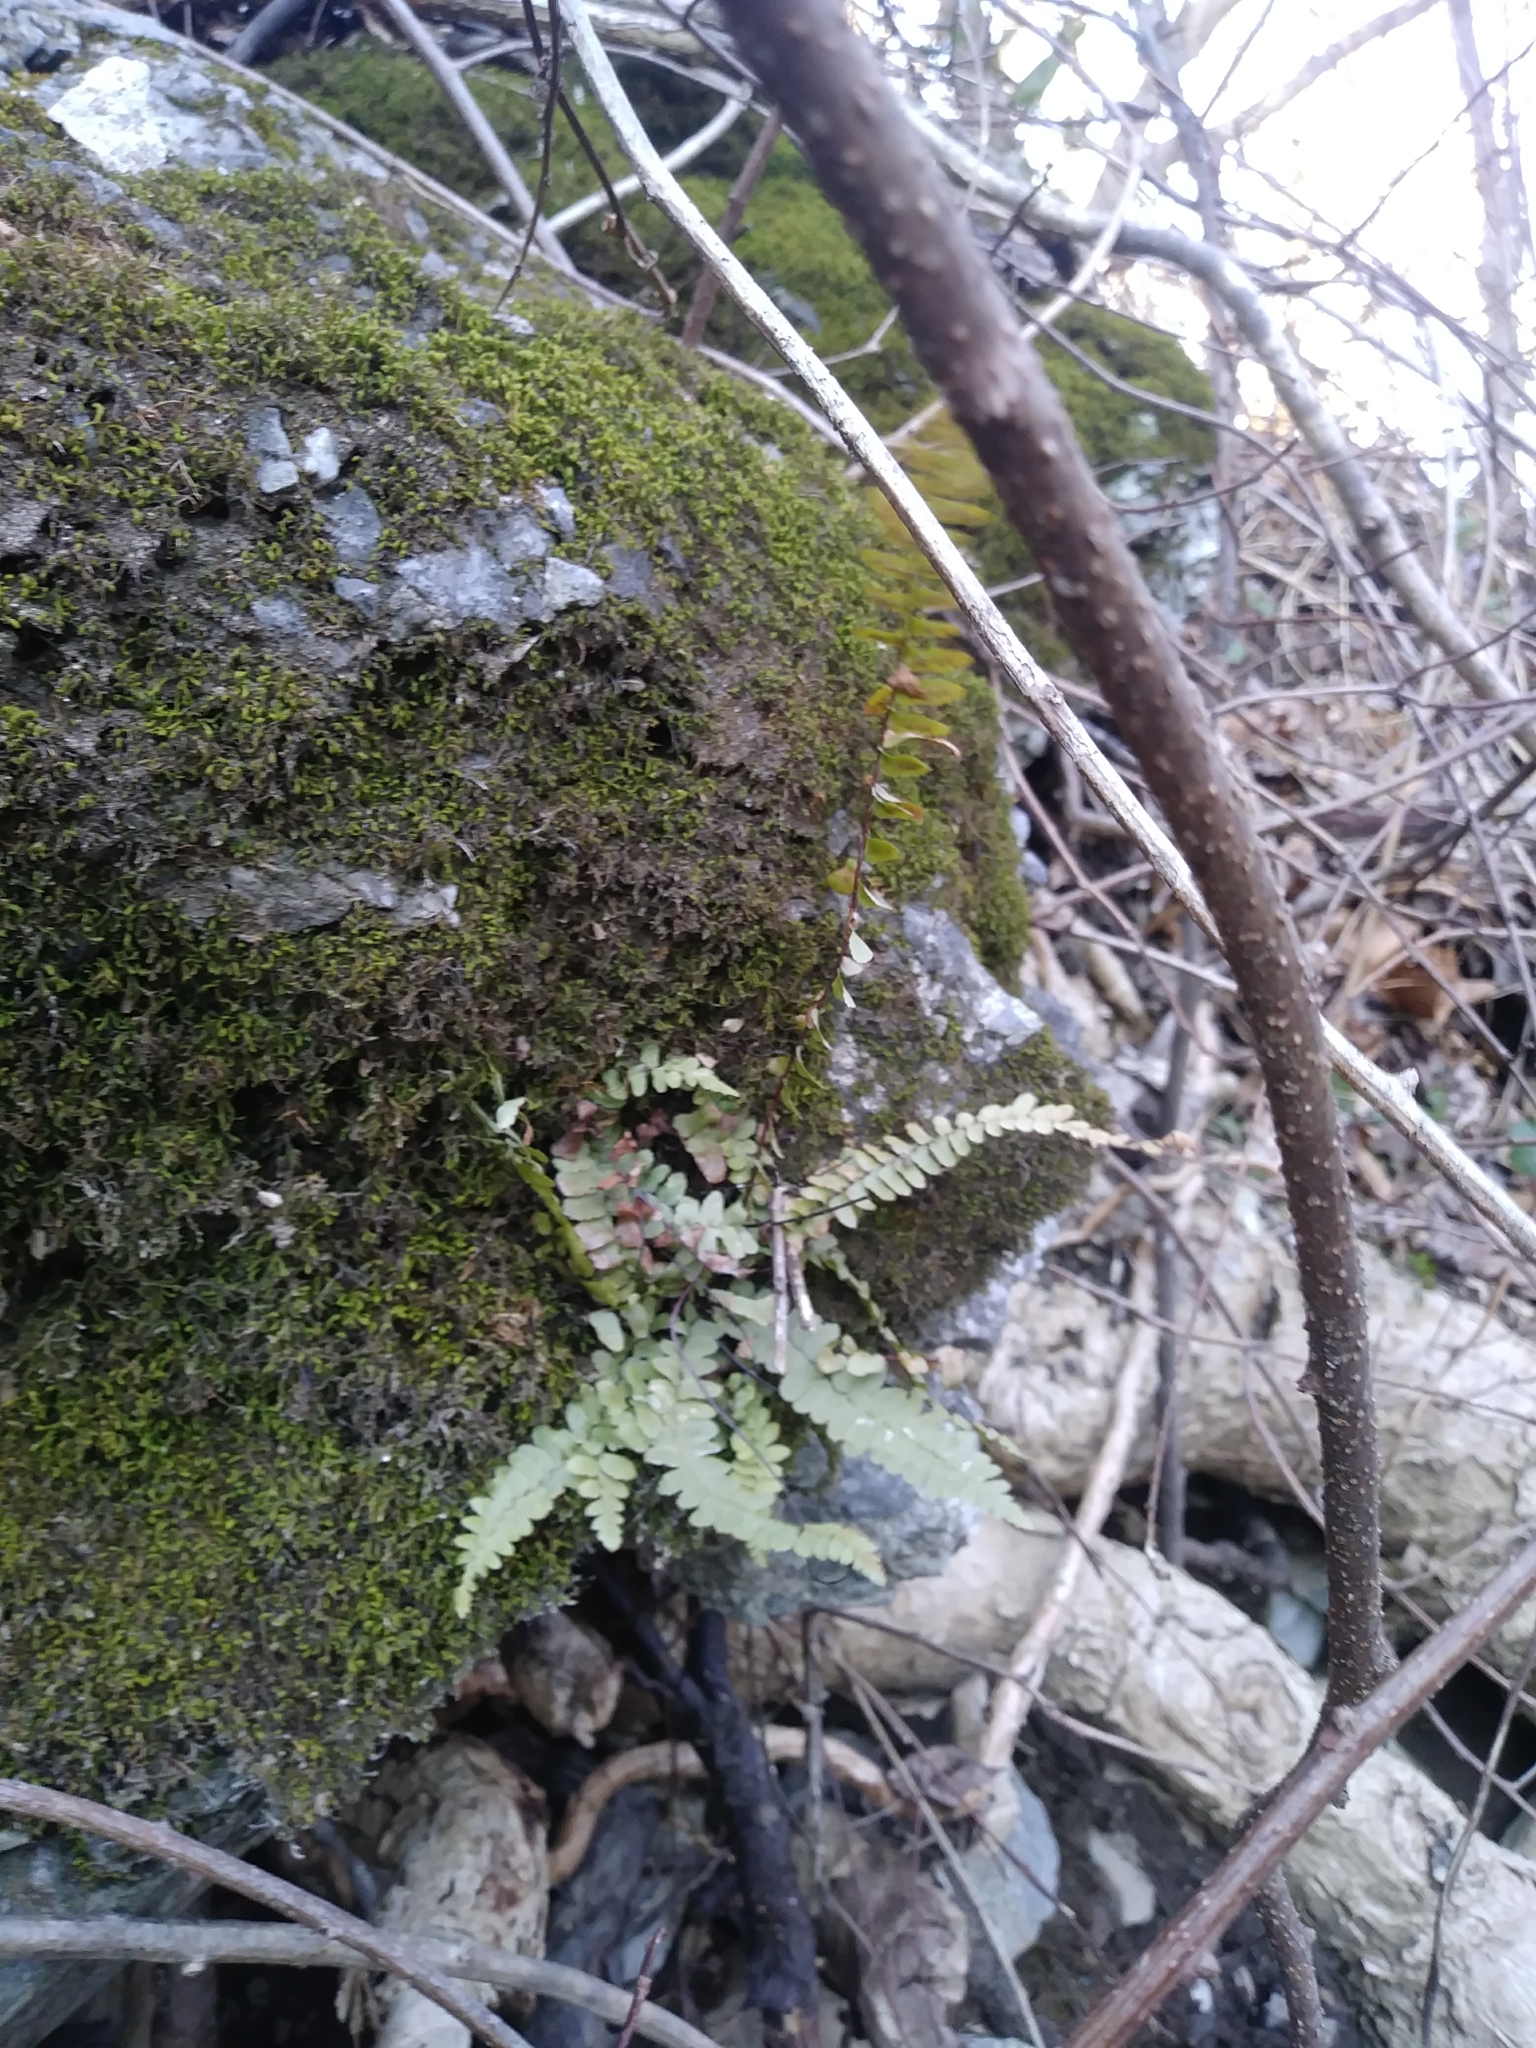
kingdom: Plantae
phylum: Tracheophyta
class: Polypodiopsida
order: Polypodiales
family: Aspleniaceae
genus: Asplenium
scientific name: Asplenium platyneuron
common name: Ebony spleenwort
